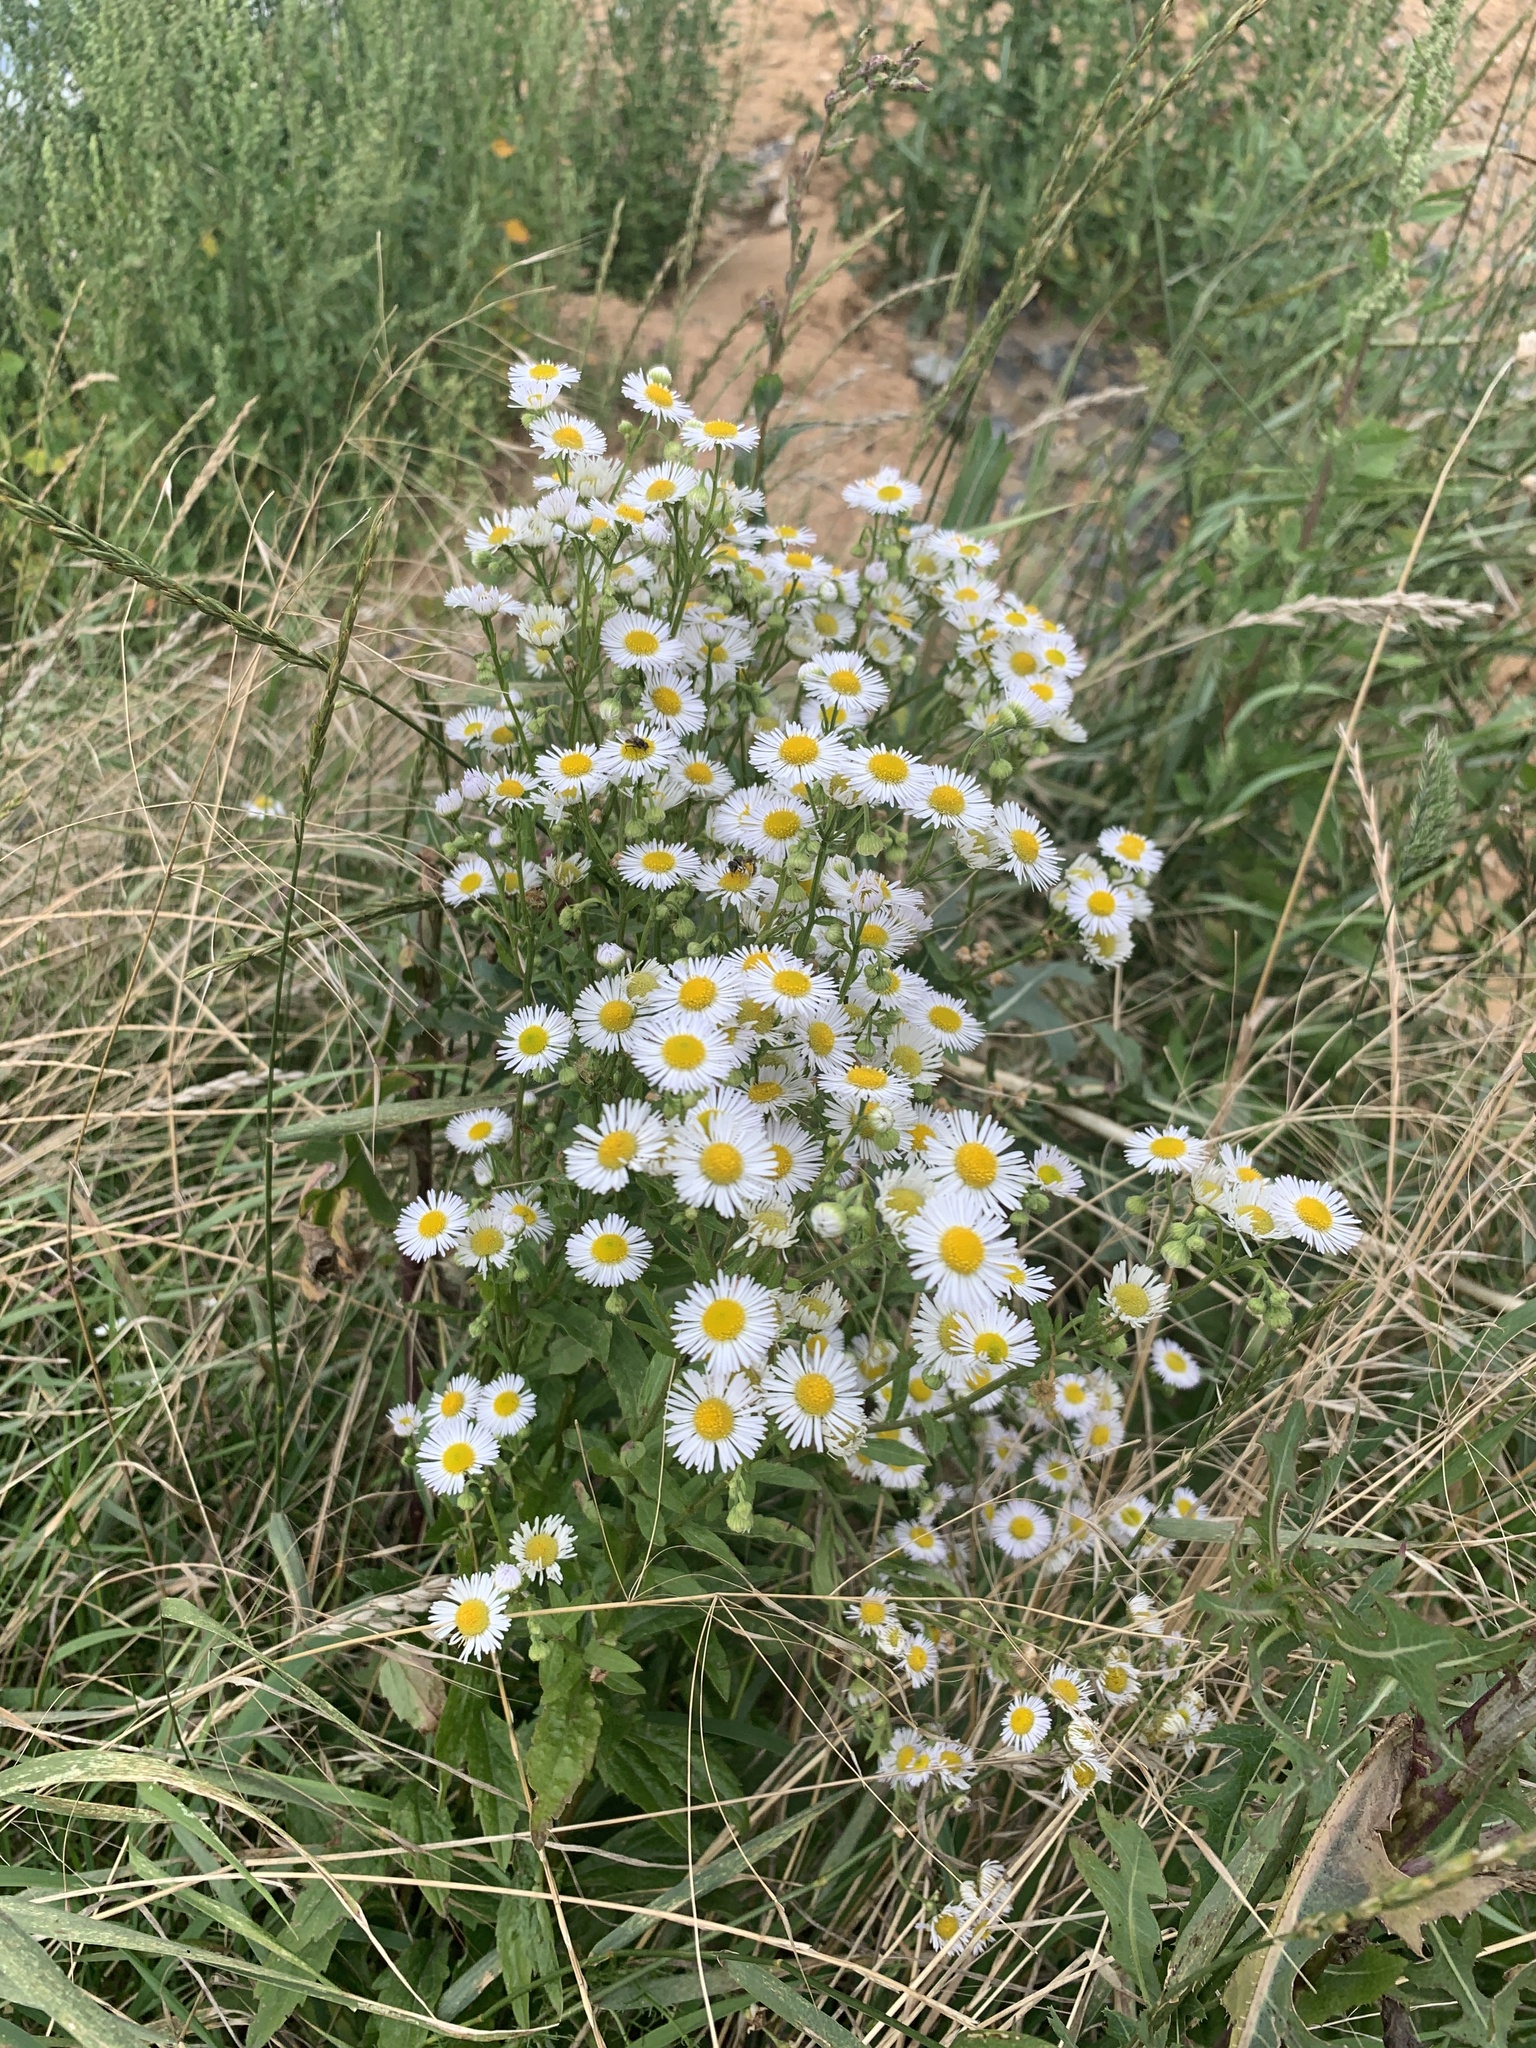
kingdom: Plantae
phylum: Tracheophyta
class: Magnoliopsida
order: Asterales
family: Asteraceae
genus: Erigeron
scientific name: Erigeron annuus
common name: Tall fleabane
